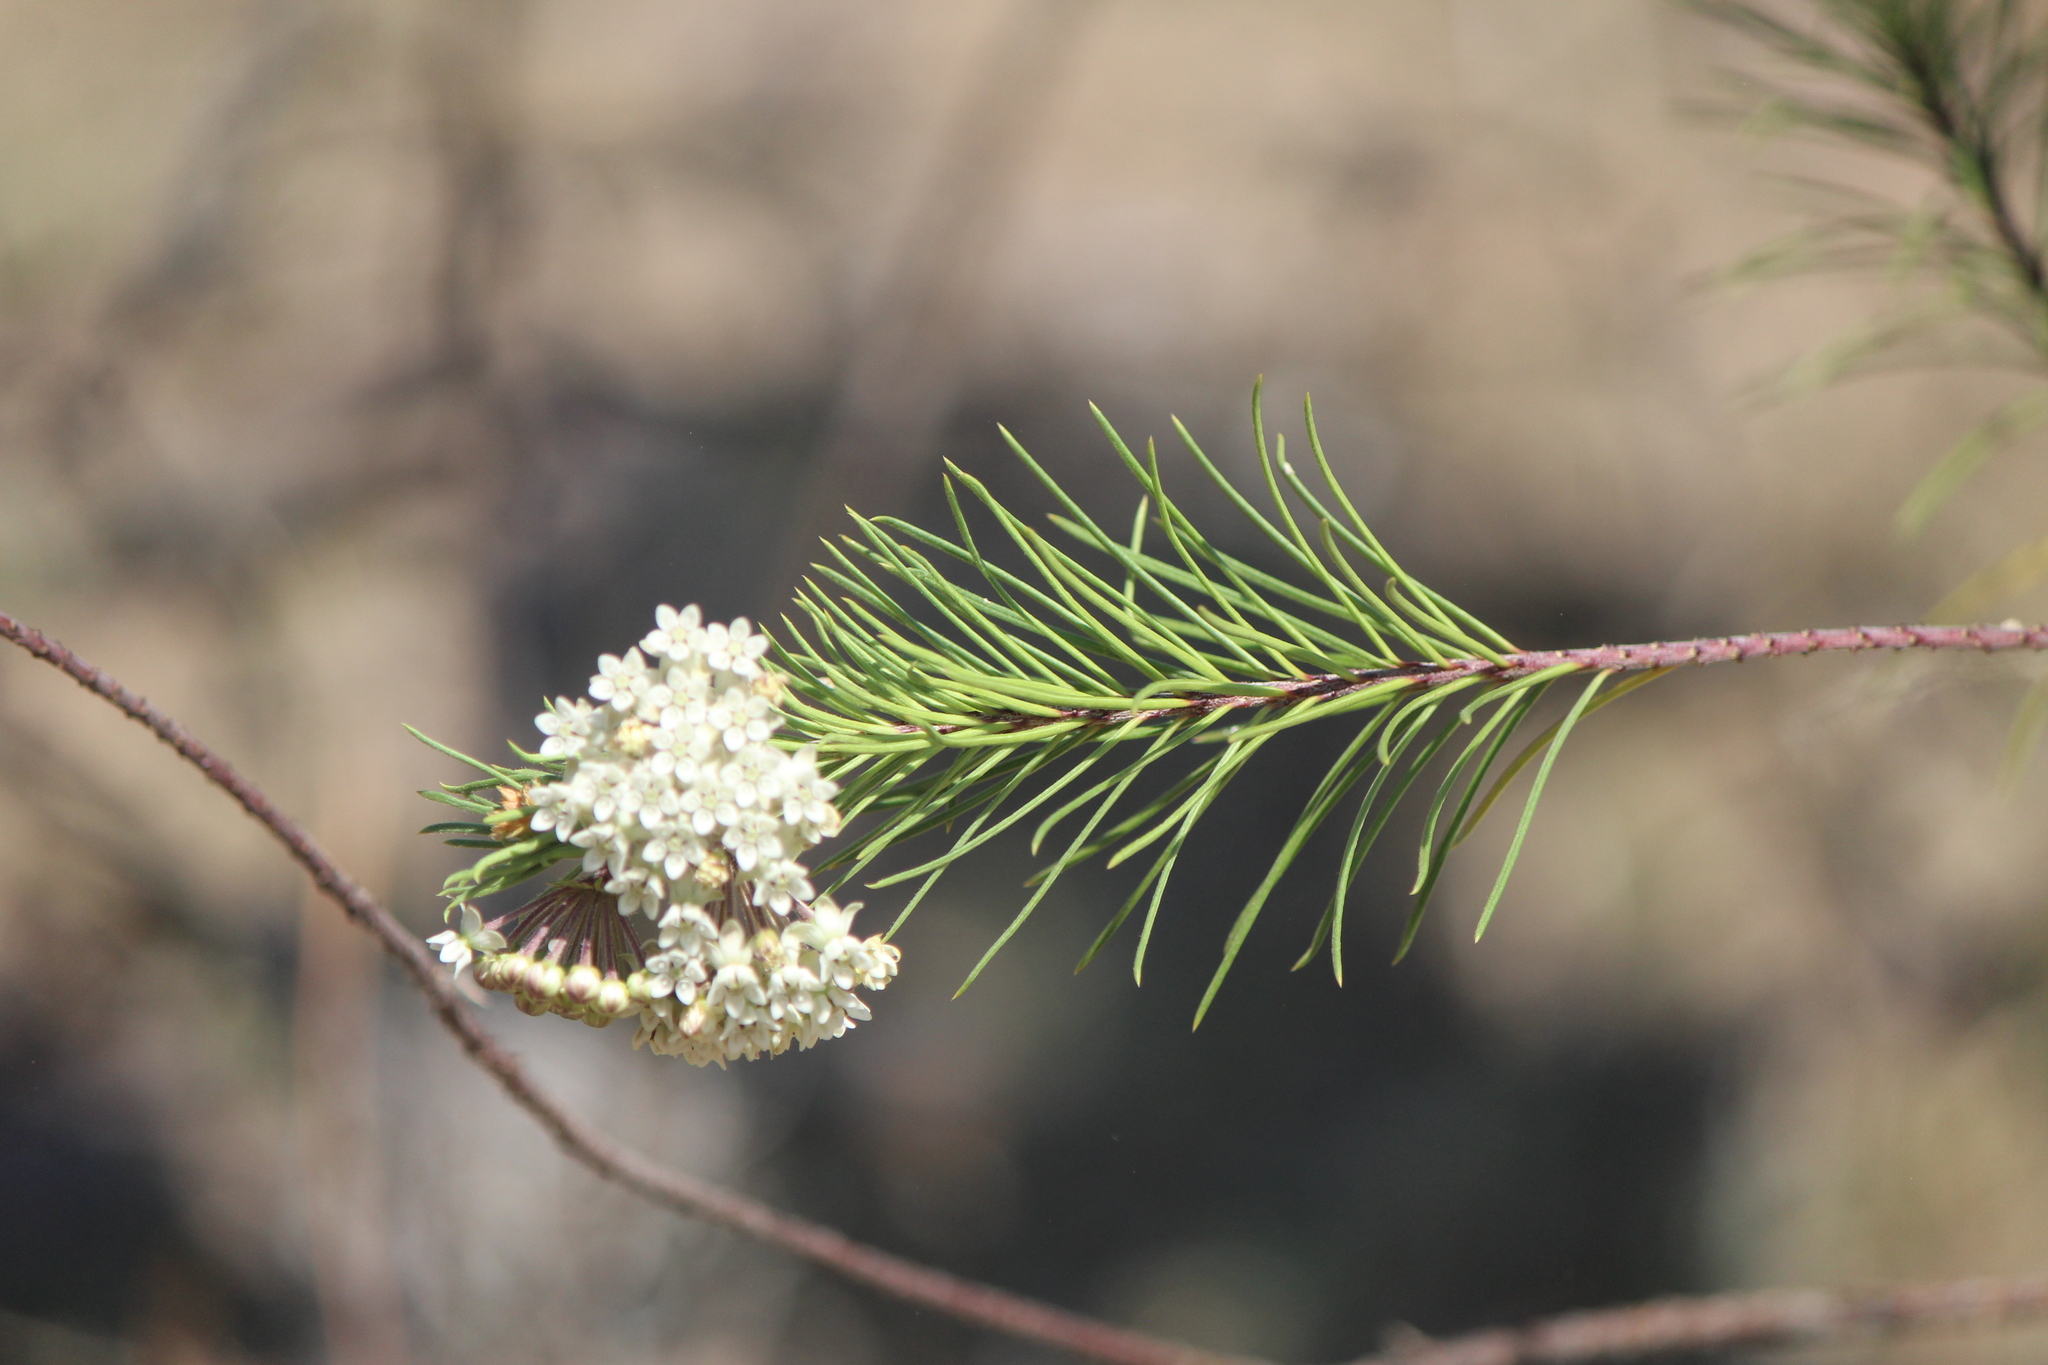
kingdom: Plantae
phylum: Tracheophyta
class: Magnoliopsida
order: Gentianales
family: Apocynaceae
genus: Asclepias
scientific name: Asclepias linaria
